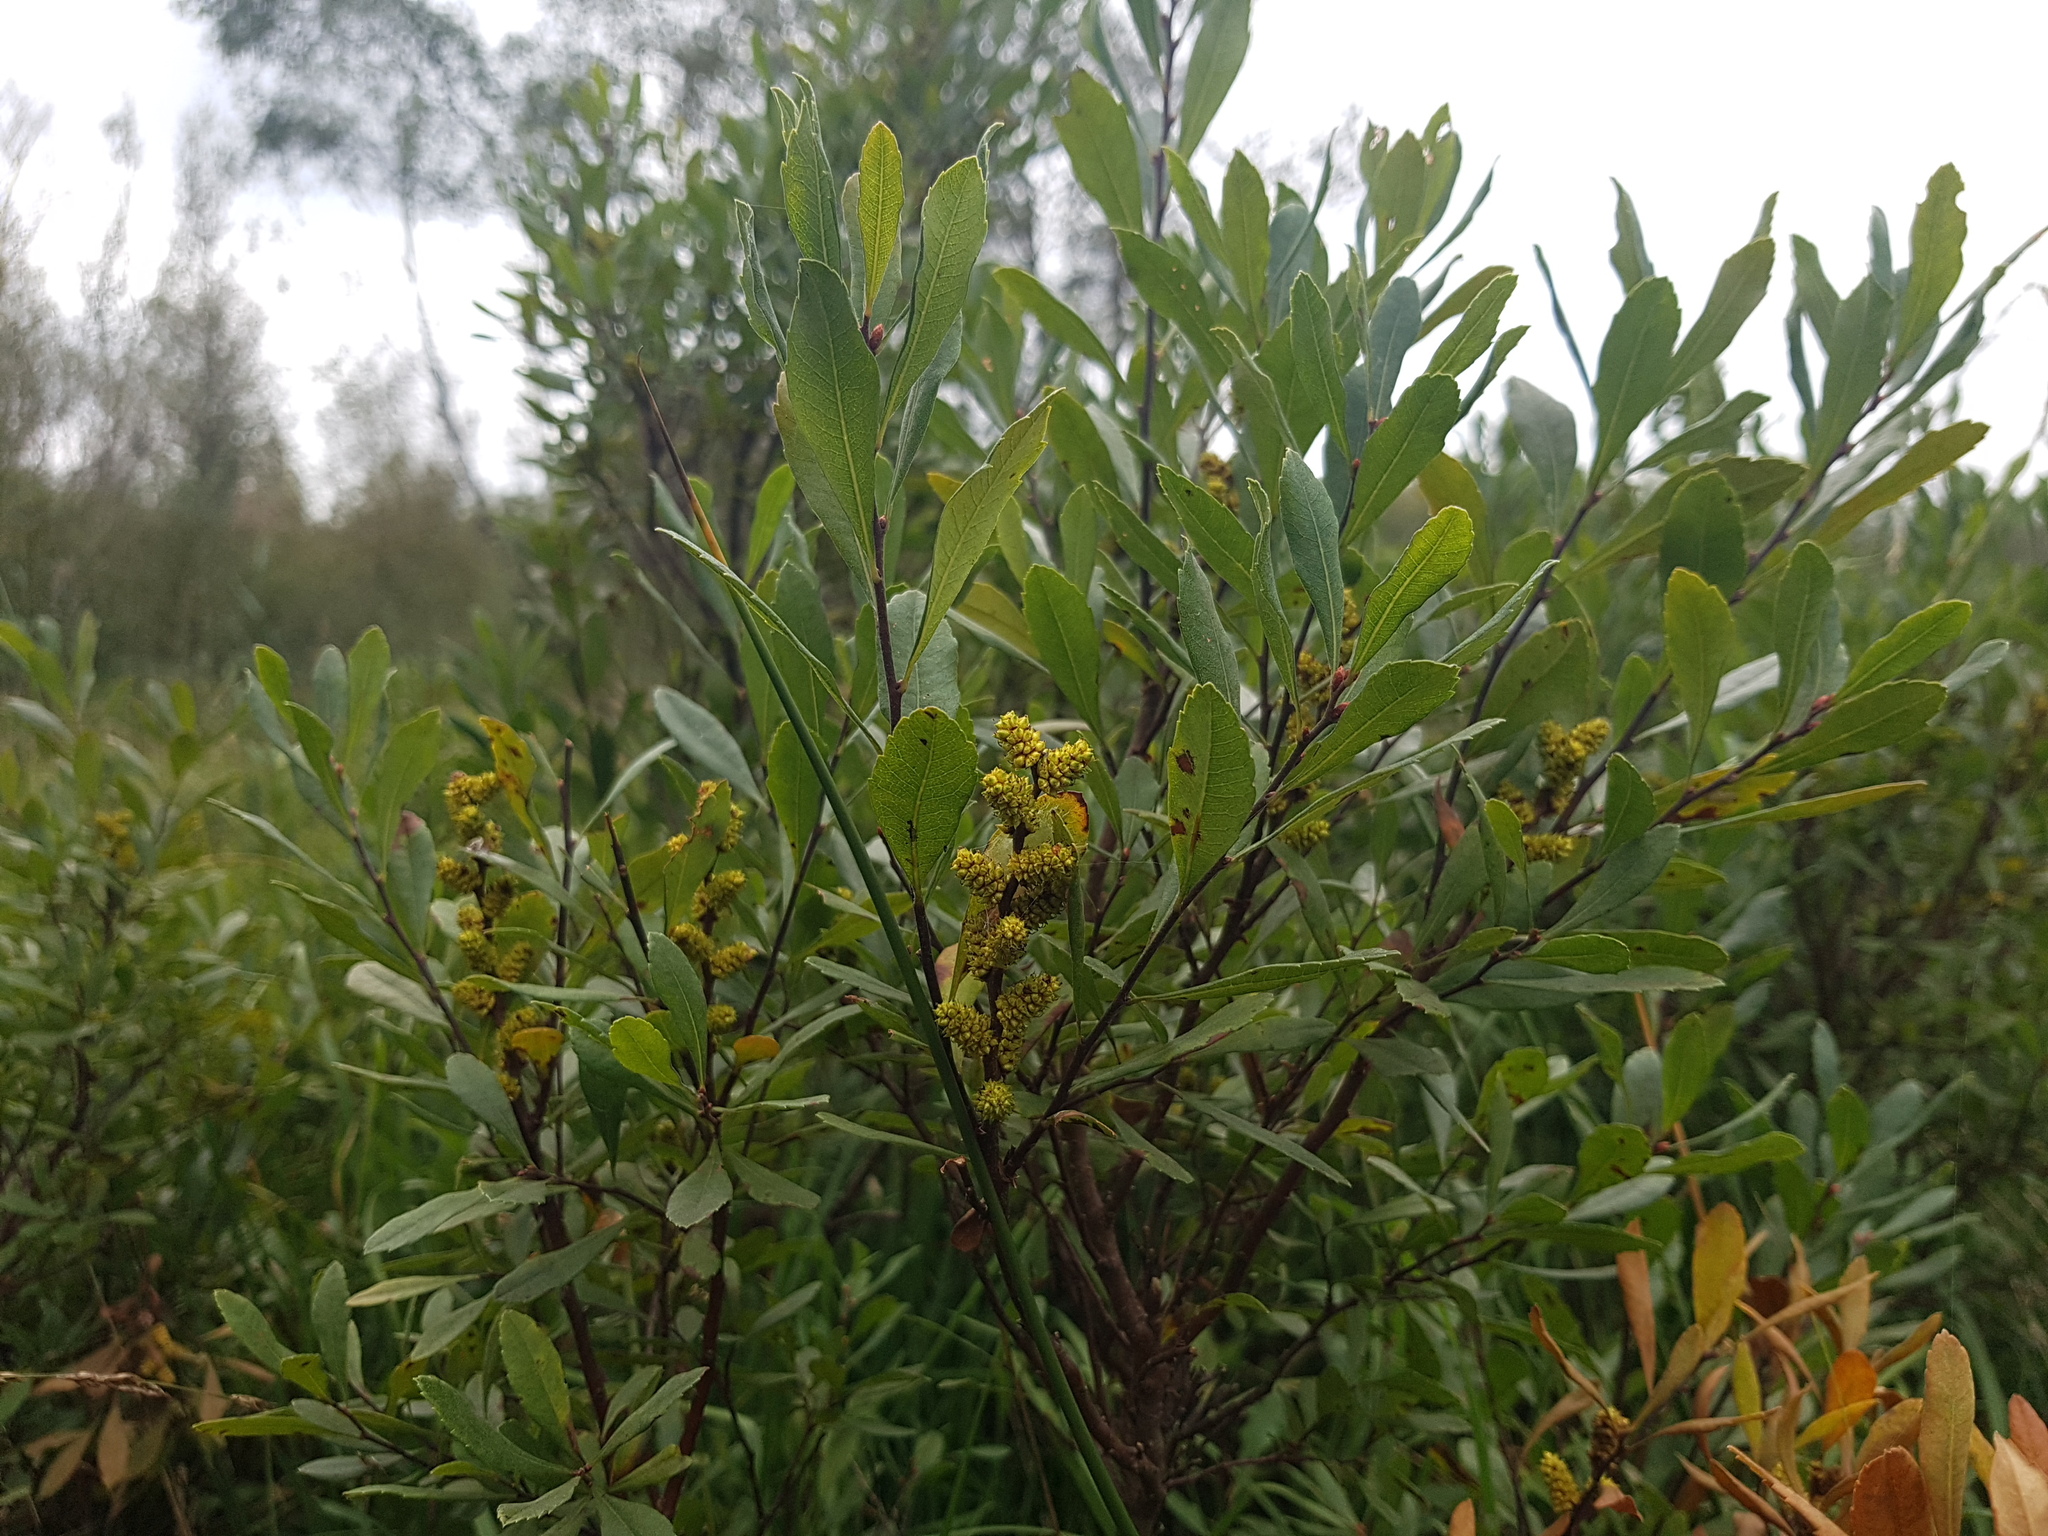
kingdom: Plantae
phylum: Tracheophyta
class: Magnoliopsida
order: Fagales
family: Myricaceae
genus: Myrica
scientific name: Myrica gale
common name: Sweet gale
